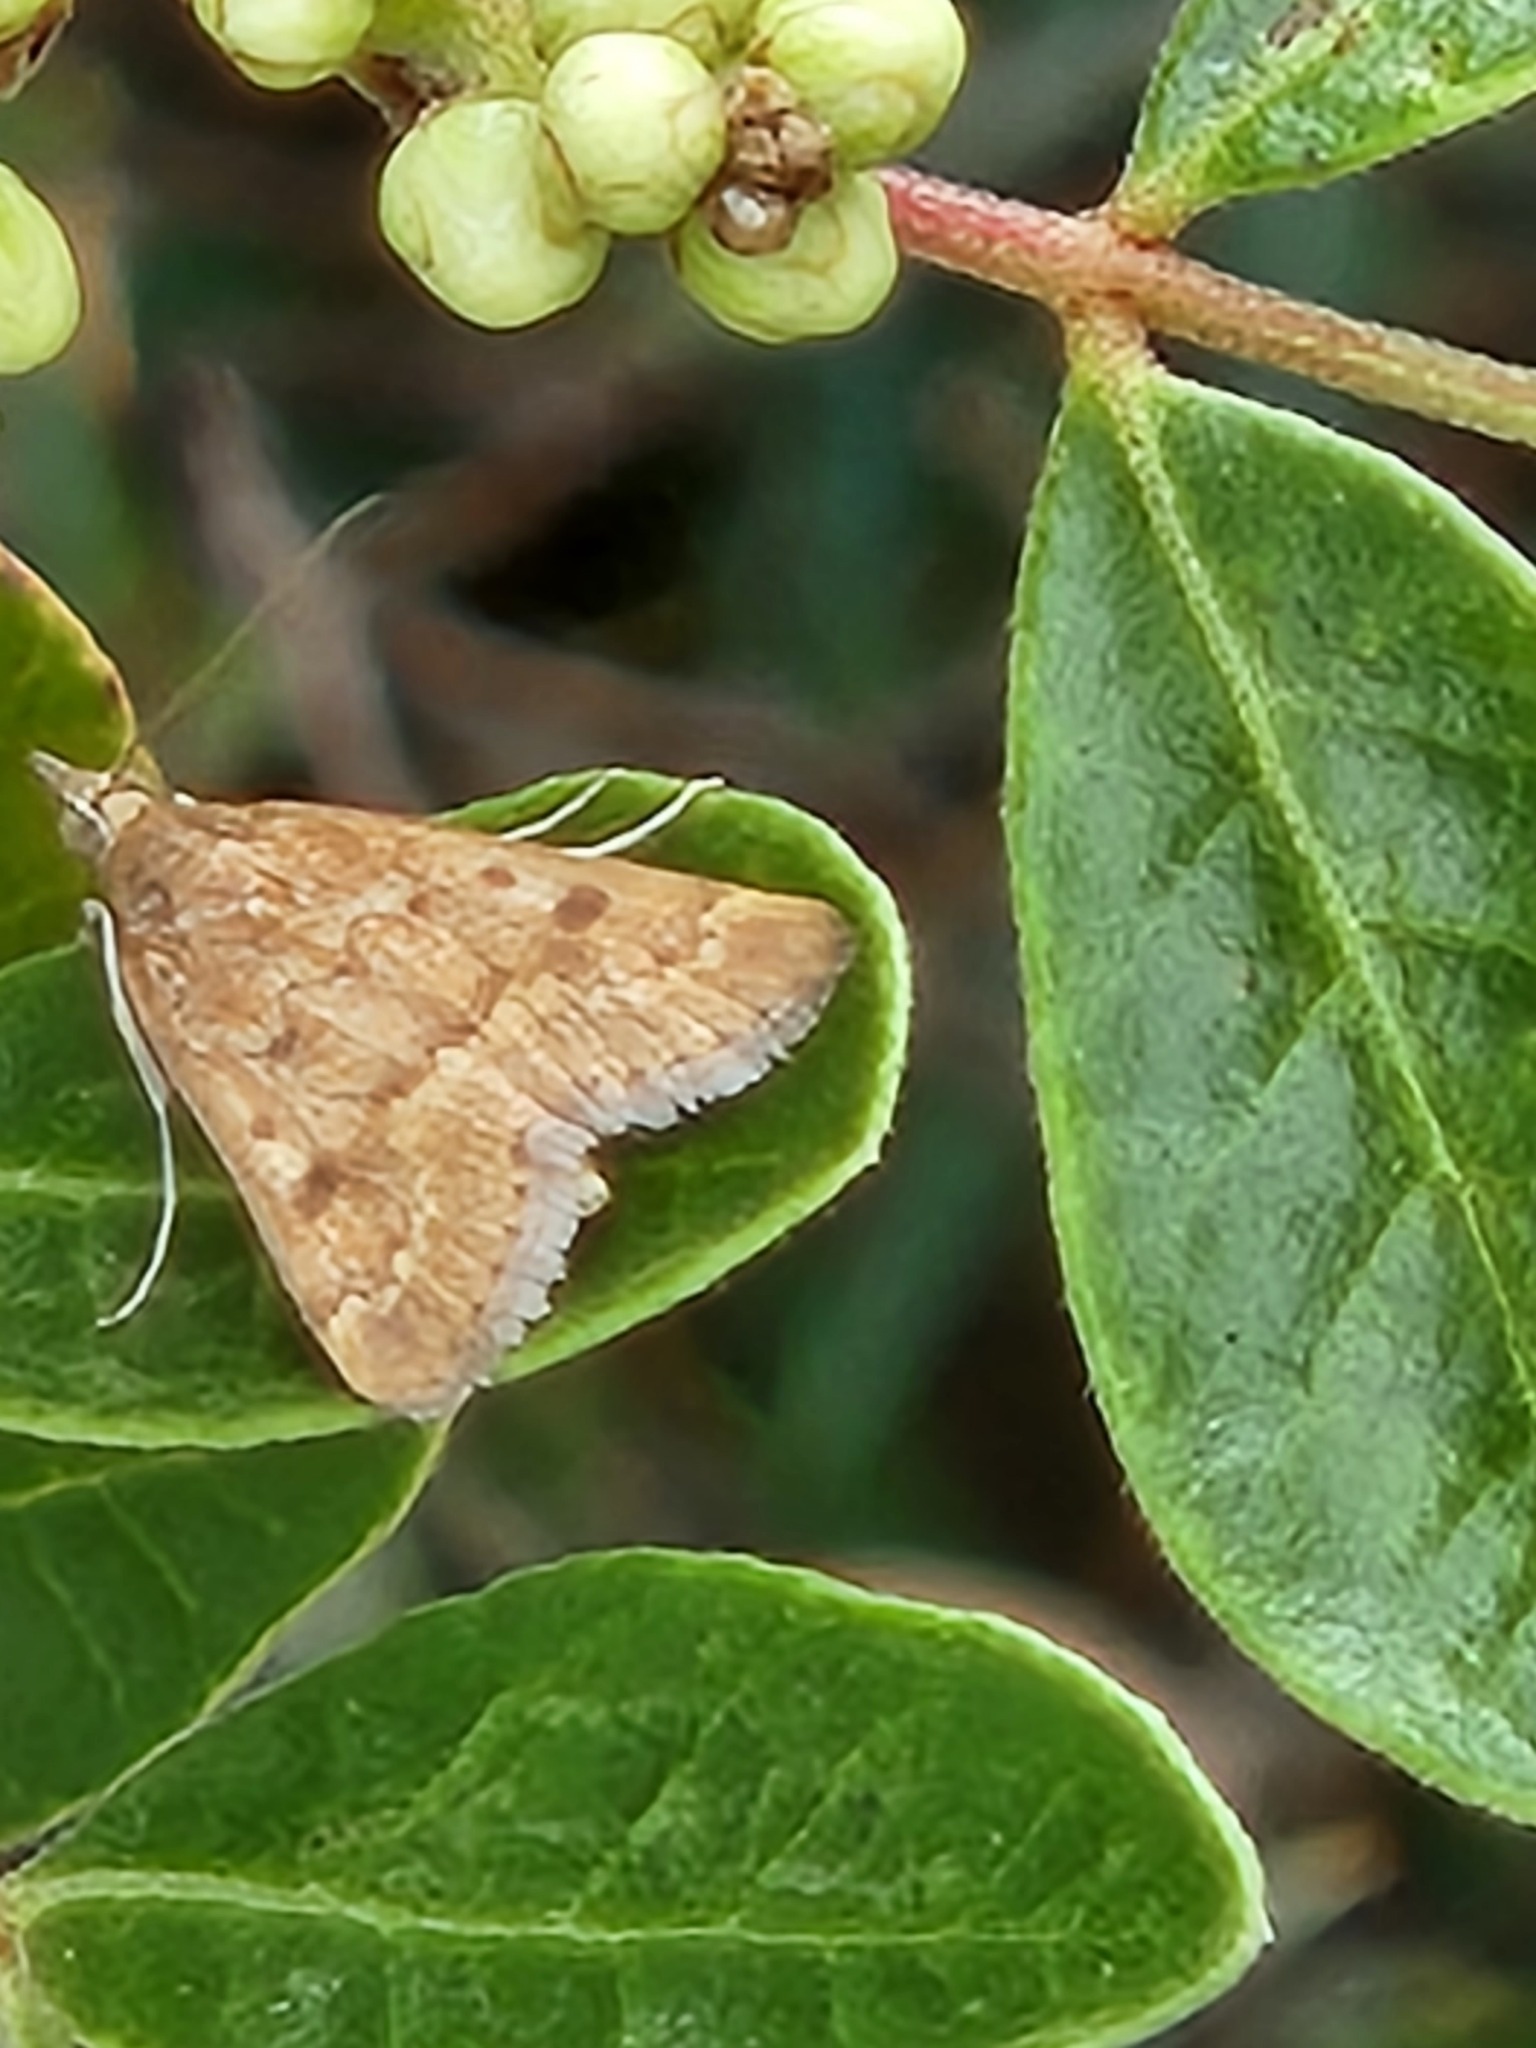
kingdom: Animalia
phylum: Arthropoda
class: Insecta
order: Lepidoptera
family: Crambidae
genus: Achyra
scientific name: Achyra rantalis
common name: Garden webworm
